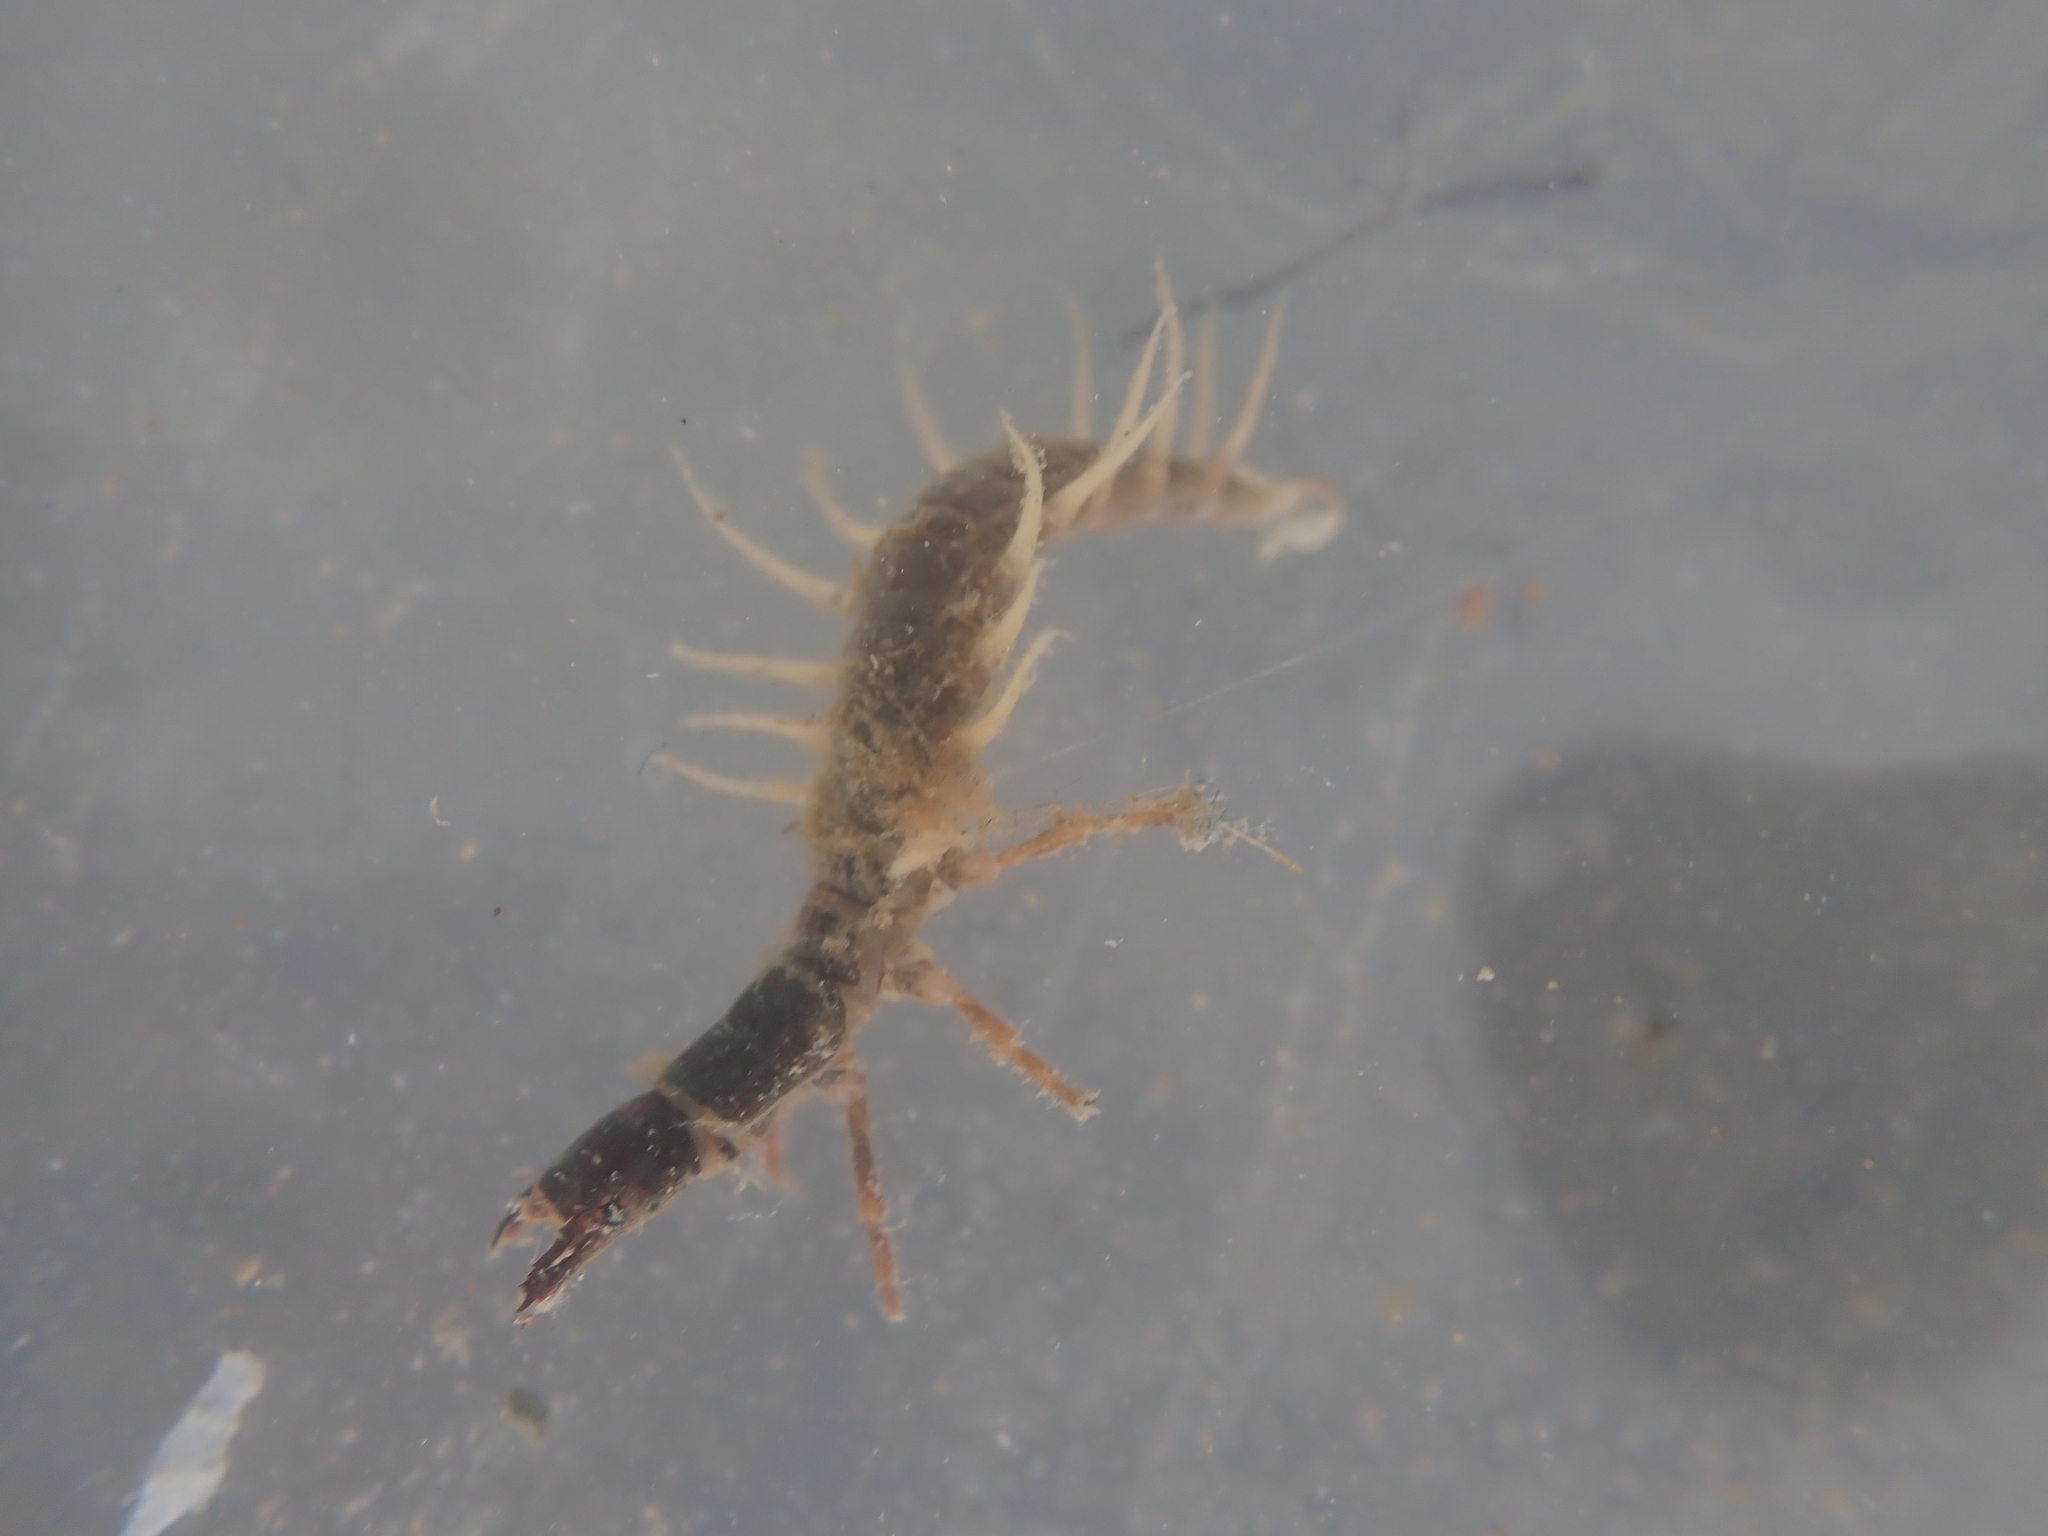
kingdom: Animalia
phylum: Arthropoda
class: Insecta
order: Megaloptera
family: Corydalidae
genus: Archichauliodes
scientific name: Archichauliodes diversus
